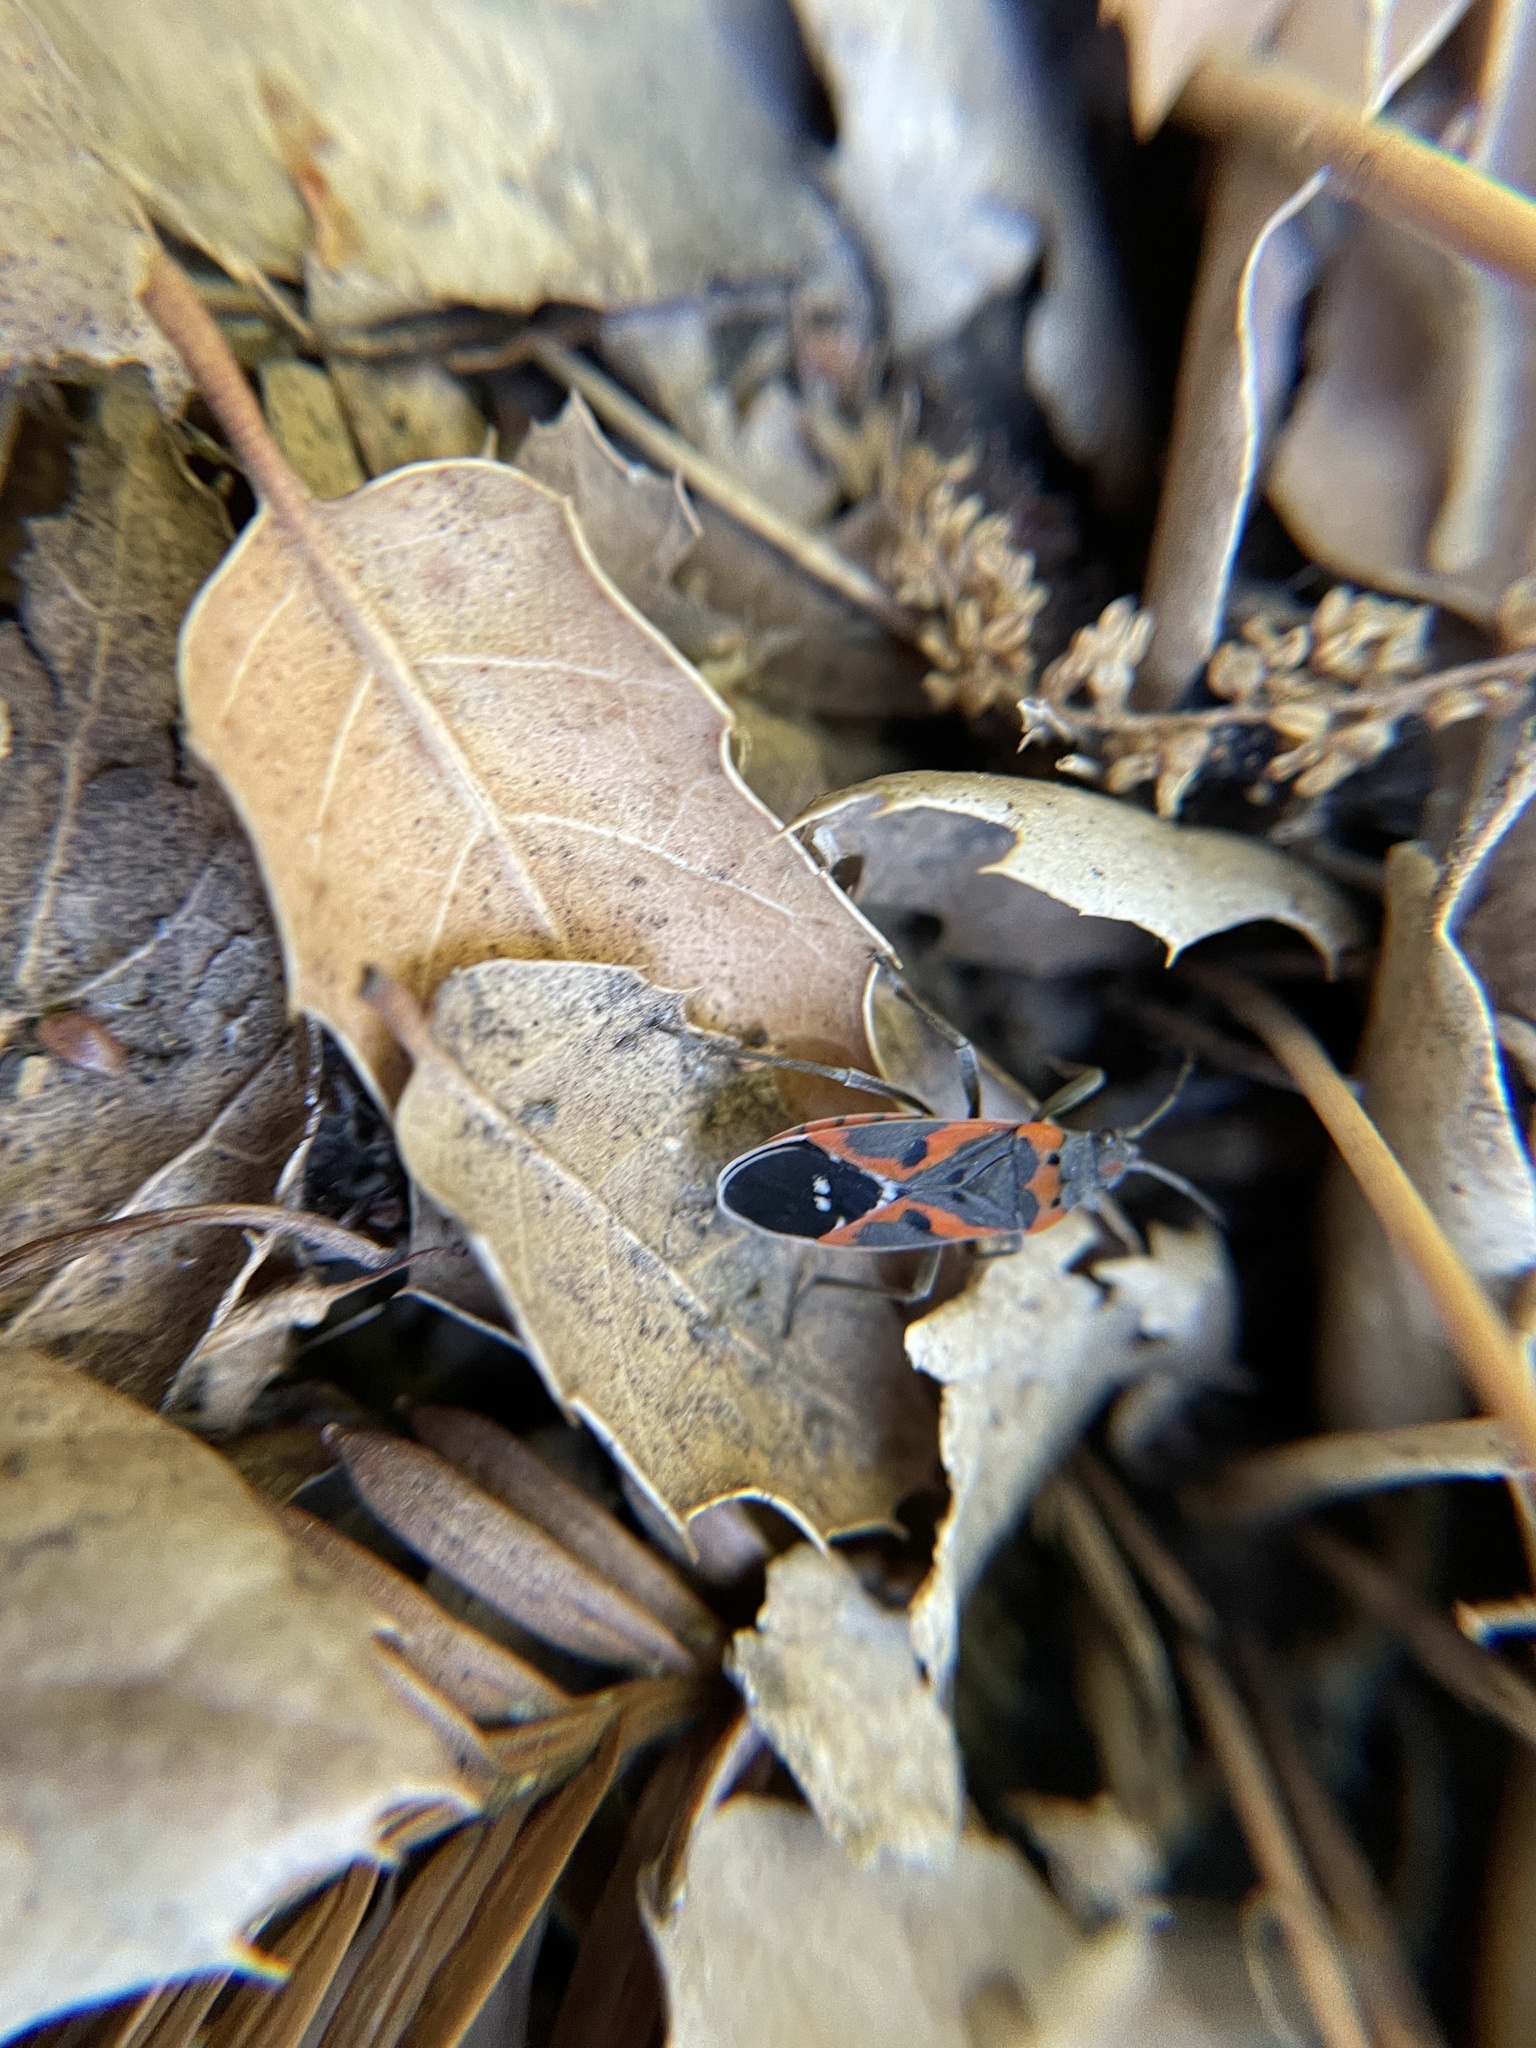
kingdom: Animalia
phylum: Arthropoda
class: Insecta
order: Hemiptera
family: Lygaeidae
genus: Lygaeus
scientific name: Lygaeus kalmii
